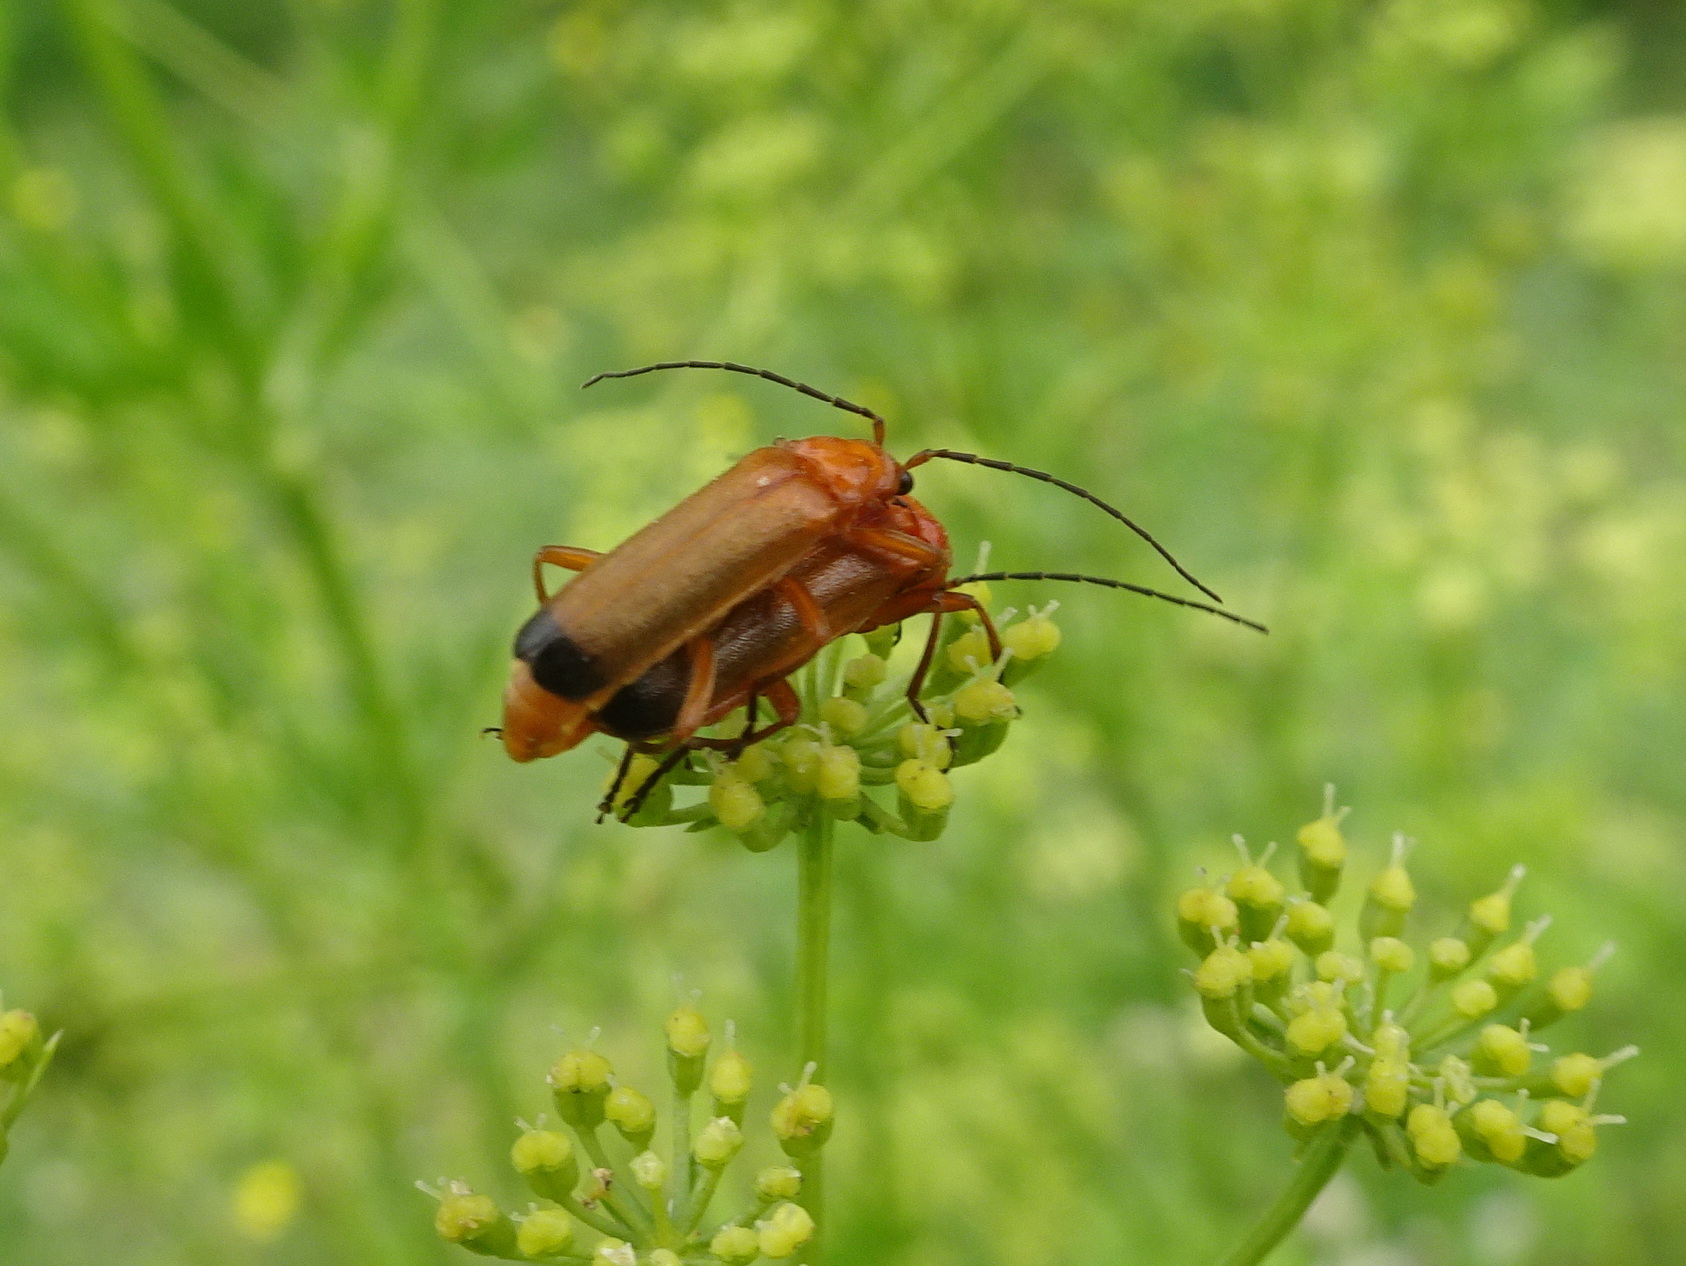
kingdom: Animalia
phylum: Arthropoda
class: Insecta
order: Coleoptera
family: Cantharidae
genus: Rhagonycha
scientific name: Rhagonycha fulva
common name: Common red soldier beetle
